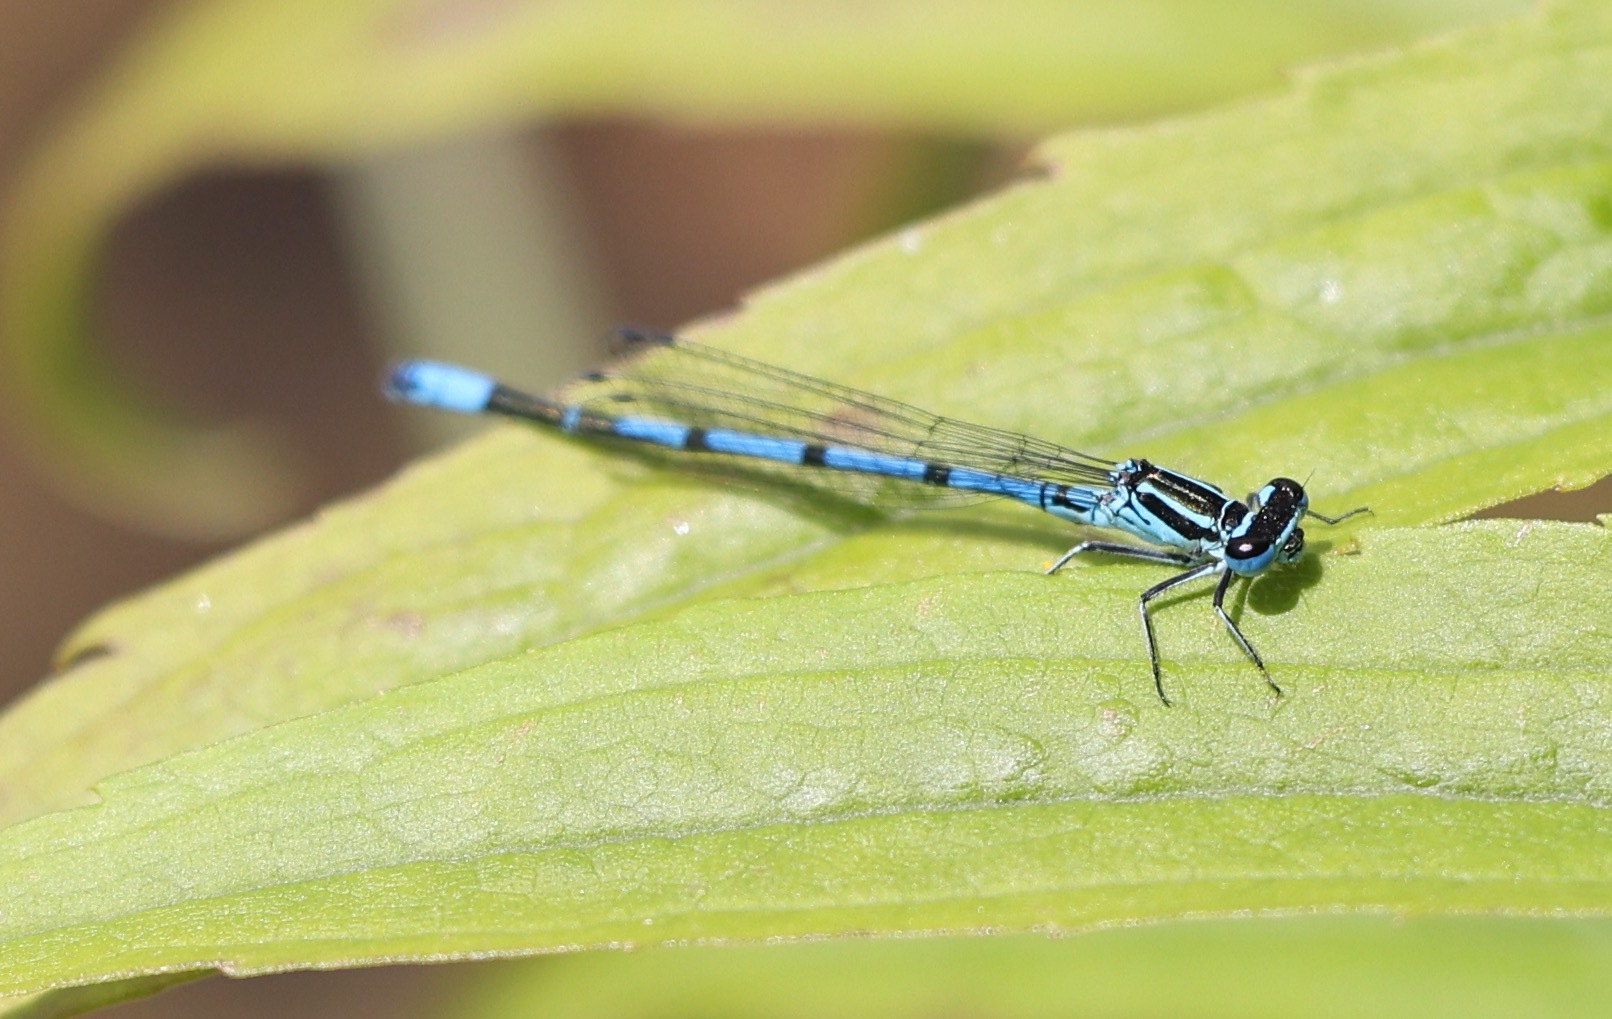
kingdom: Animalia
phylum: Arthropoda
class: Insecta
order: Odonata
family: Coenagrionidae
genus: Coenagrion
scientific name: Coenagrion puella
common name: Azure damselfly
